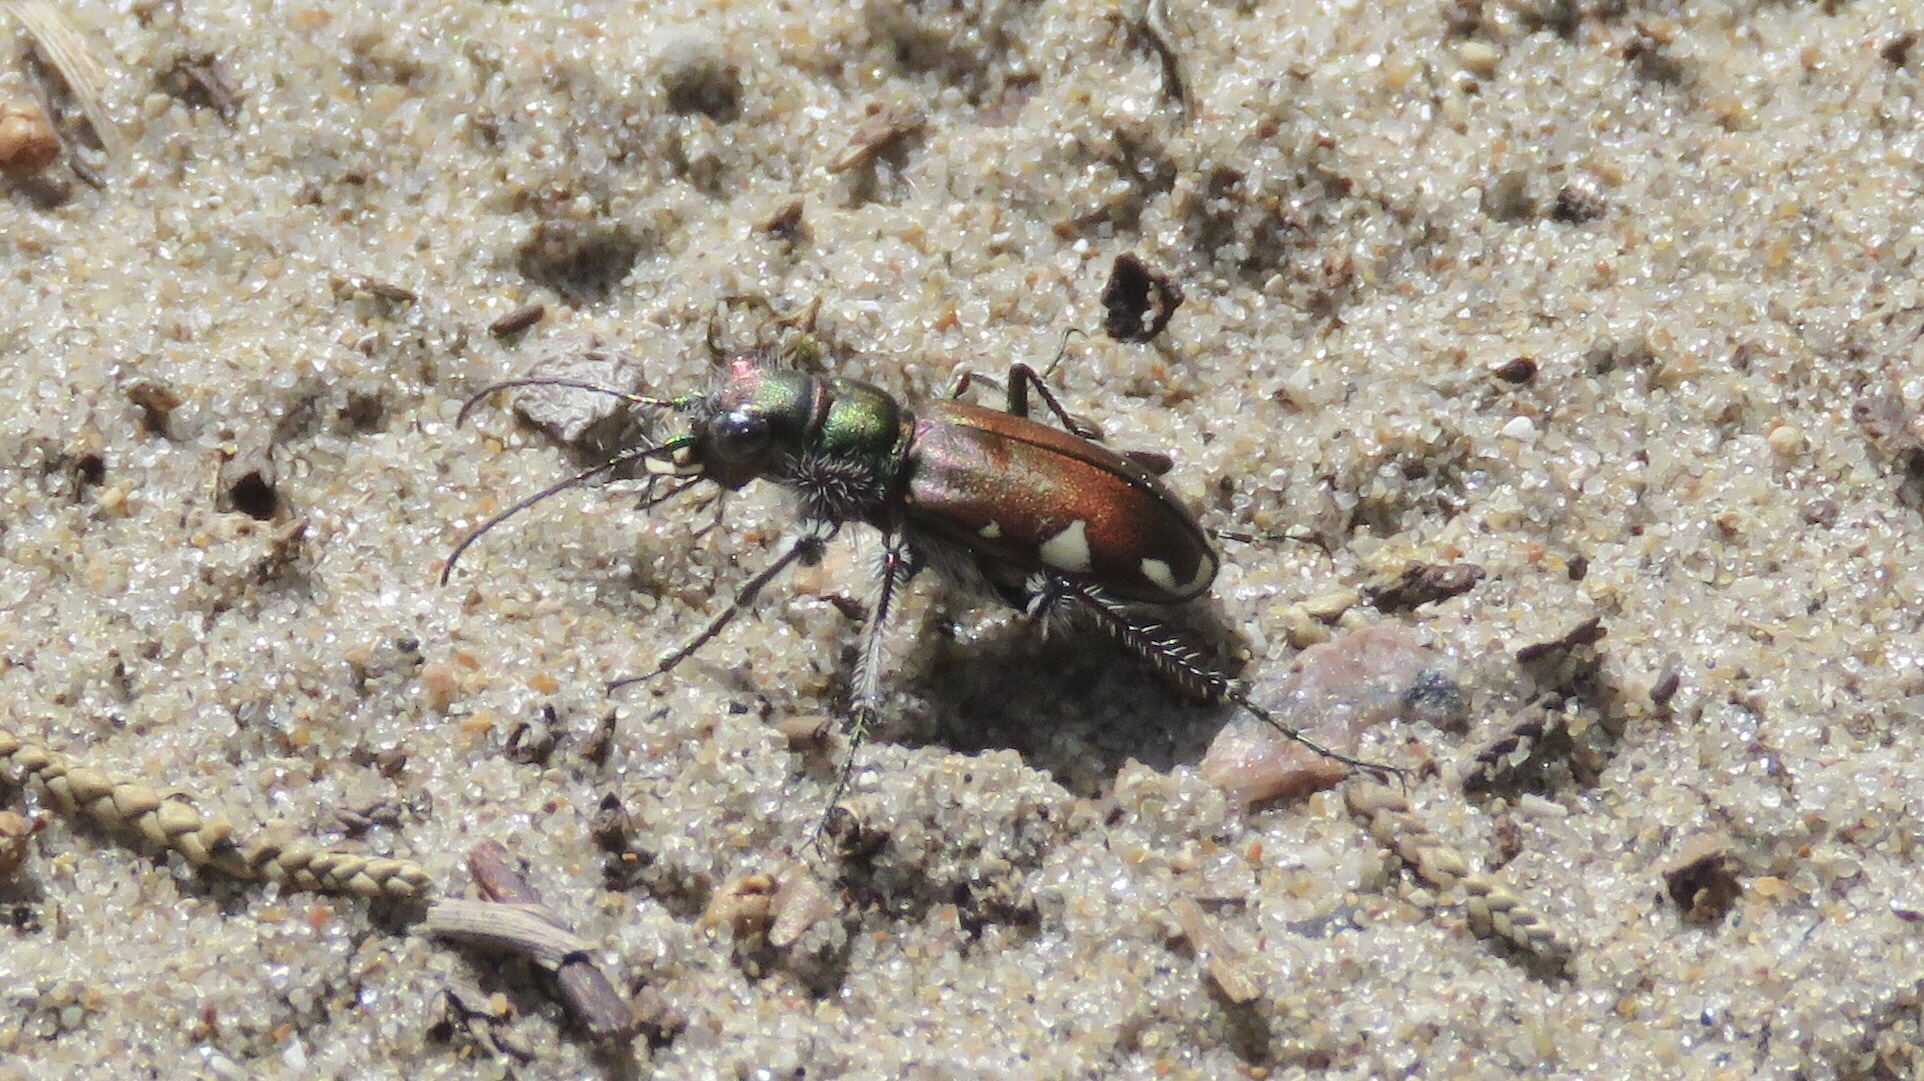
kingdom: Animalia
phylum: Arthropoda
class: Insecta
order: Coleoptera
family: Carabidae
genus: Cicindela
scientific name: Cicindela scutellaris
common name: Festive tiger beetle
